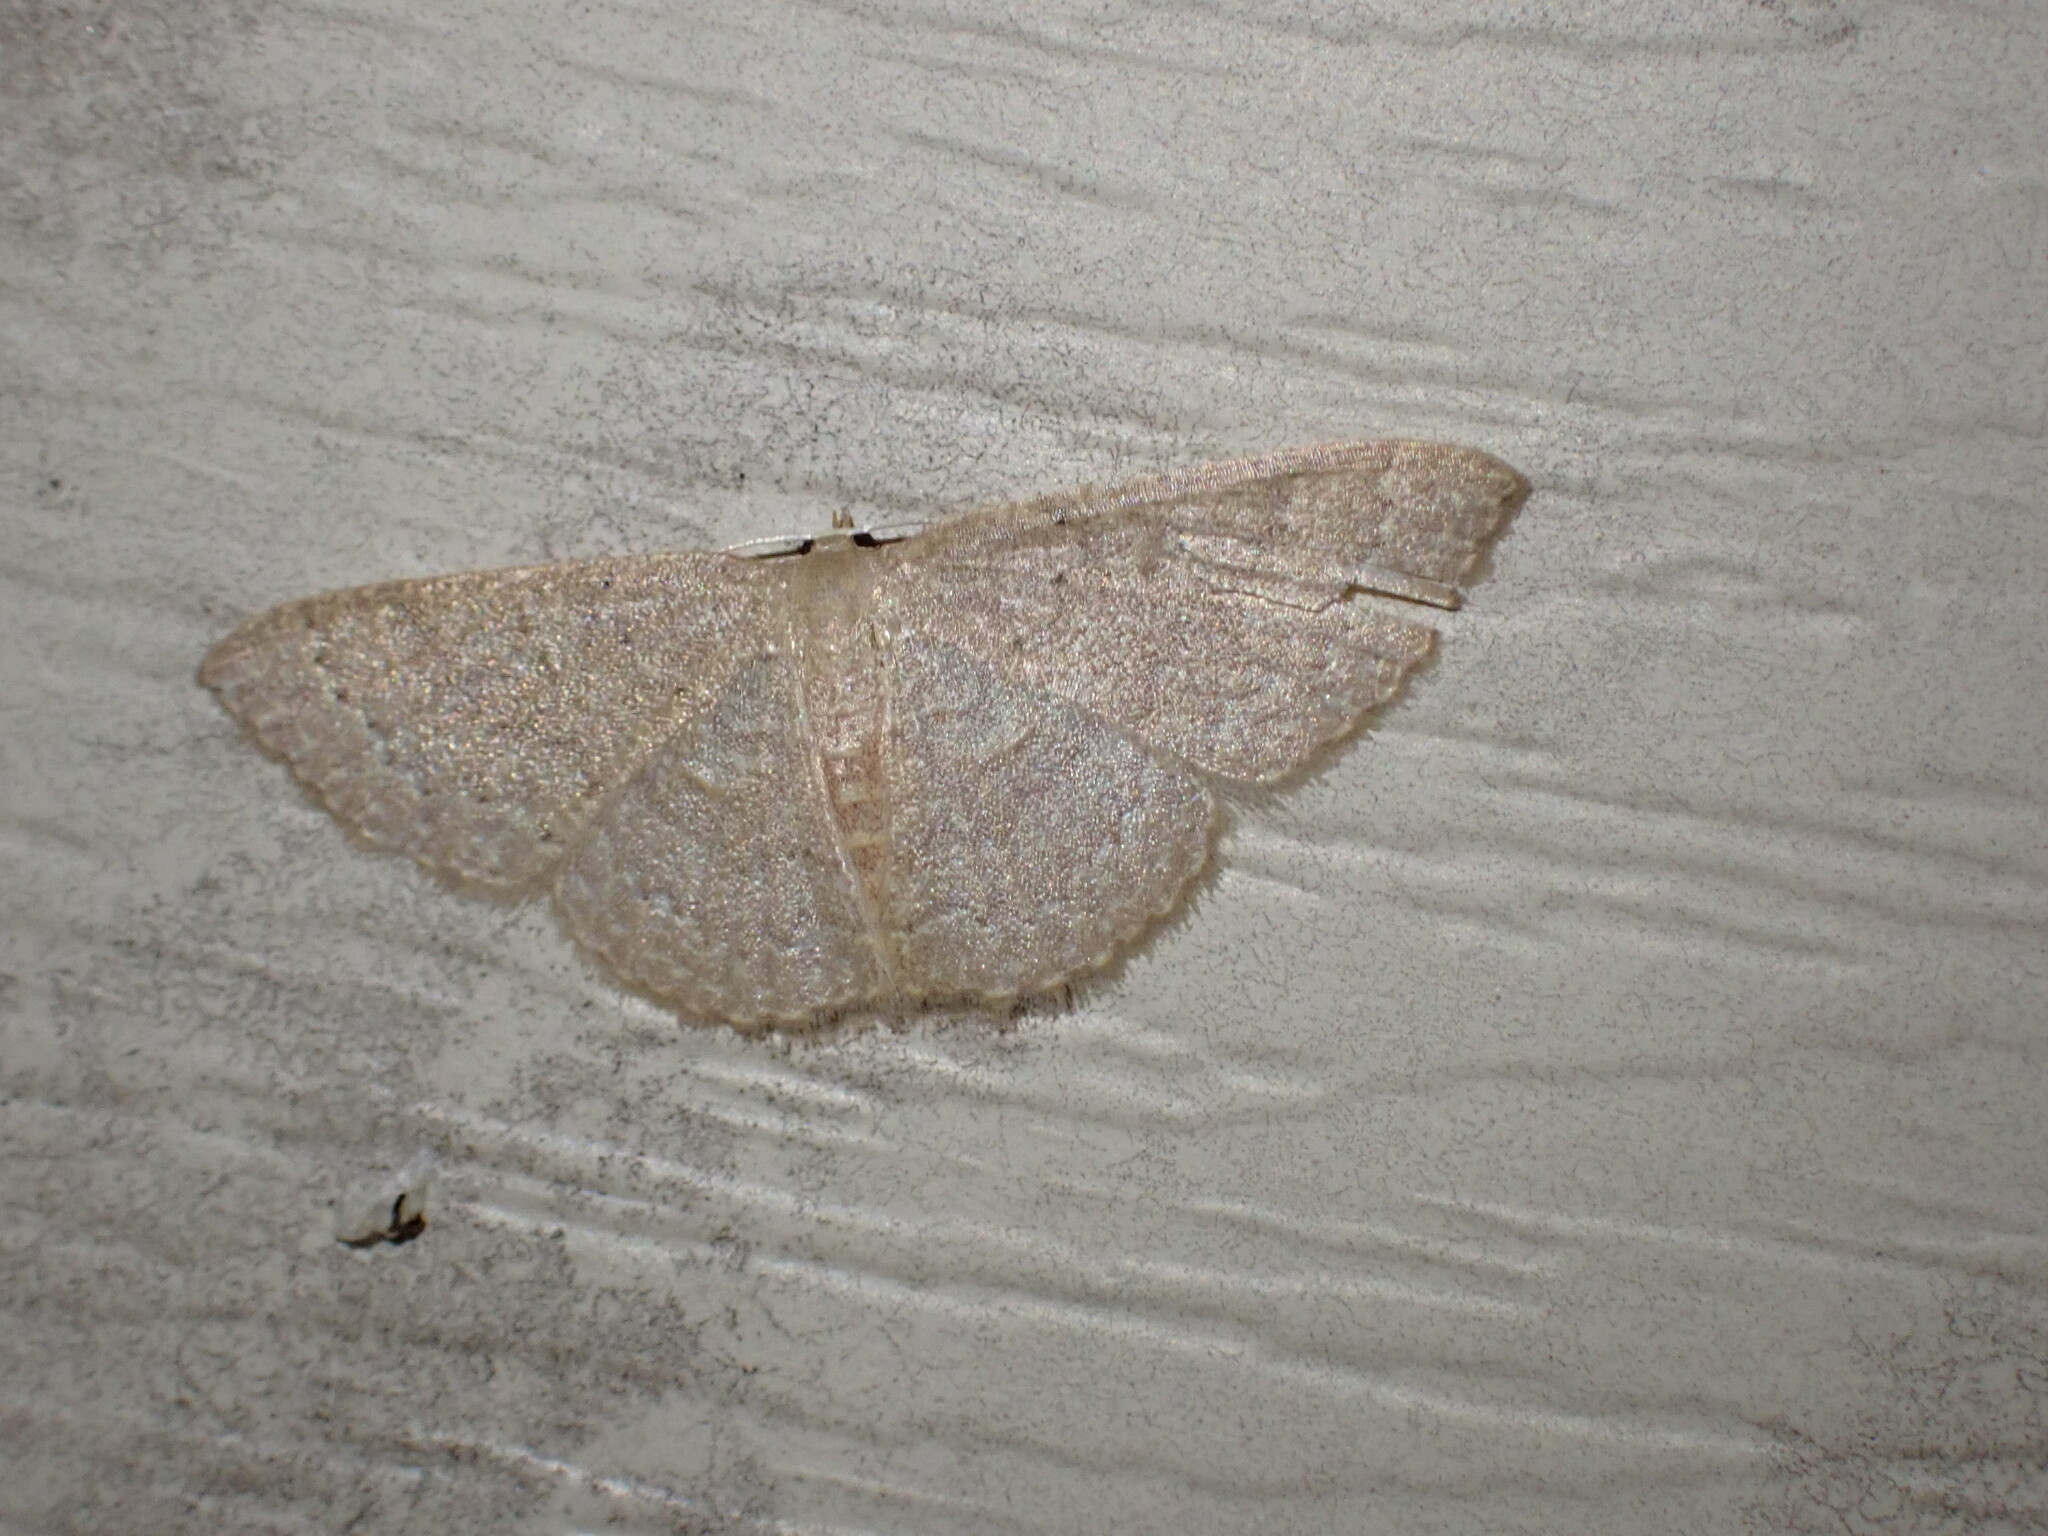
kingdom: Animalia
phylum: Arthropoda
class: Insecta
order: Lepidoptera
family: Geometridae
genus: Pleuroprucha
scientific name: Pleuroprucha insulsaria
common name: Common tan wave
